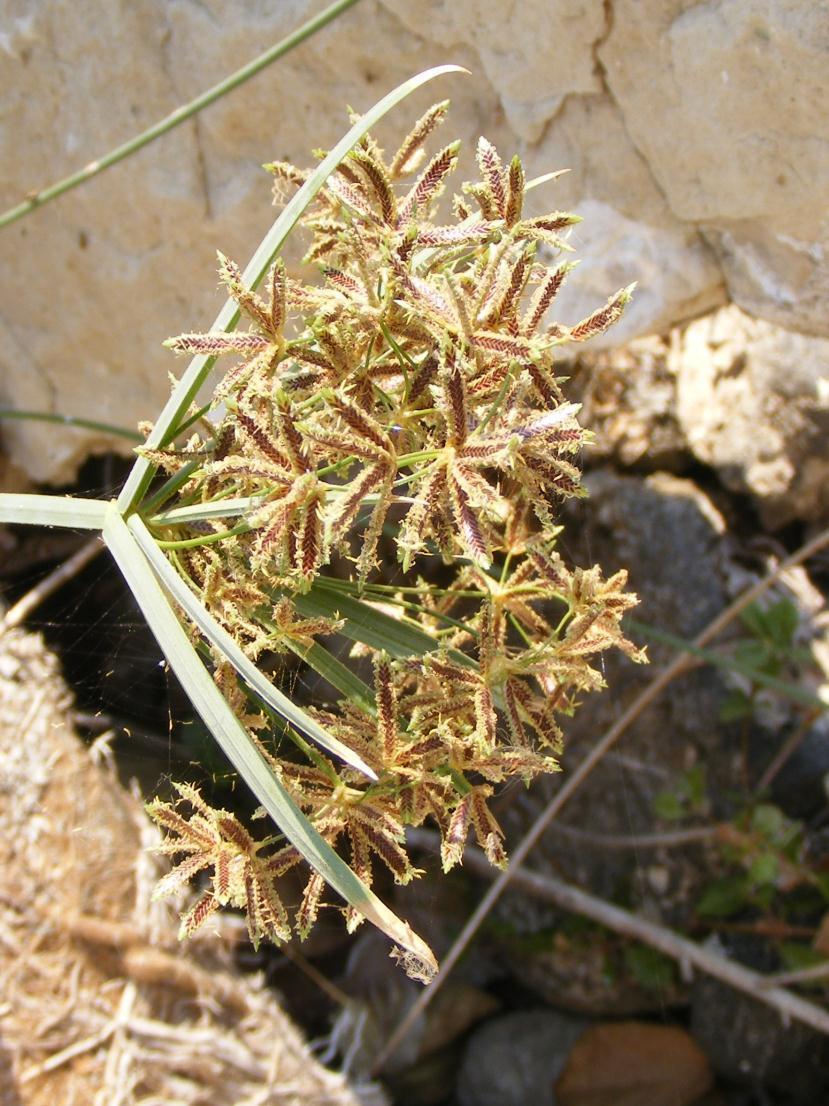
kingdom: Plantae
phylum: Tracheophyta
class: Liliopsida
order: Poales
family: Cyperaceae
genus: Cyperus
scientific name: Cyperus sexangularis
